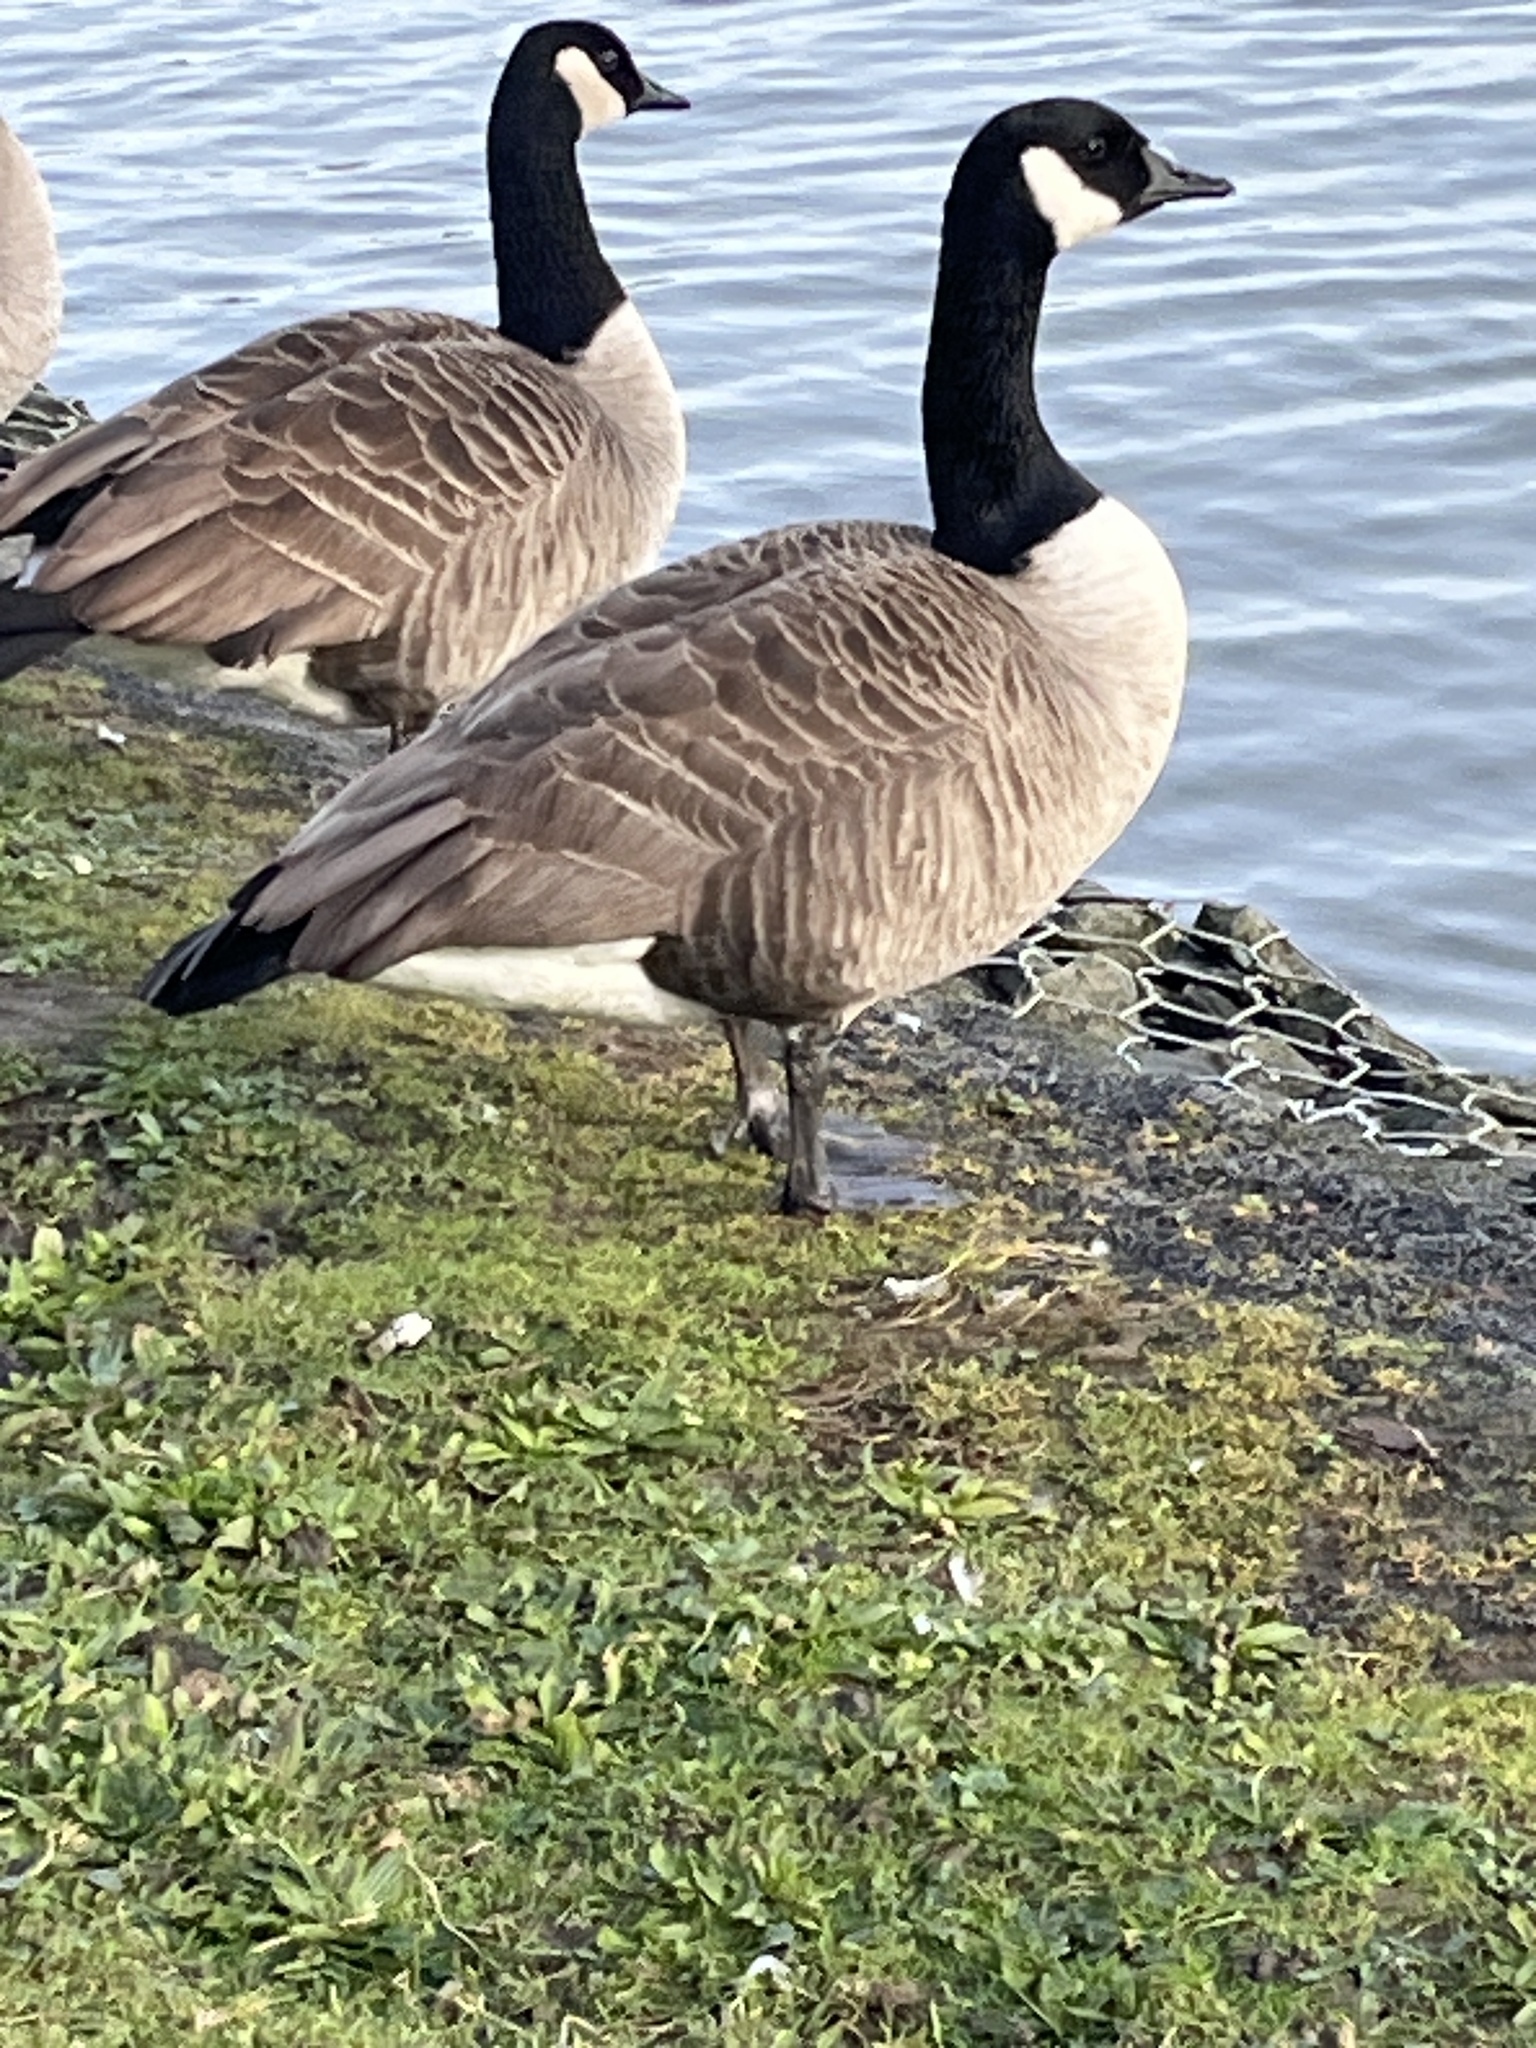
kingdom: Animalia
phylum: Chordata
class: Aves
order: Anseriformes
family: Anatidae
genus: Branta
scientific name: Branta canadensis
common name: Canada goose
